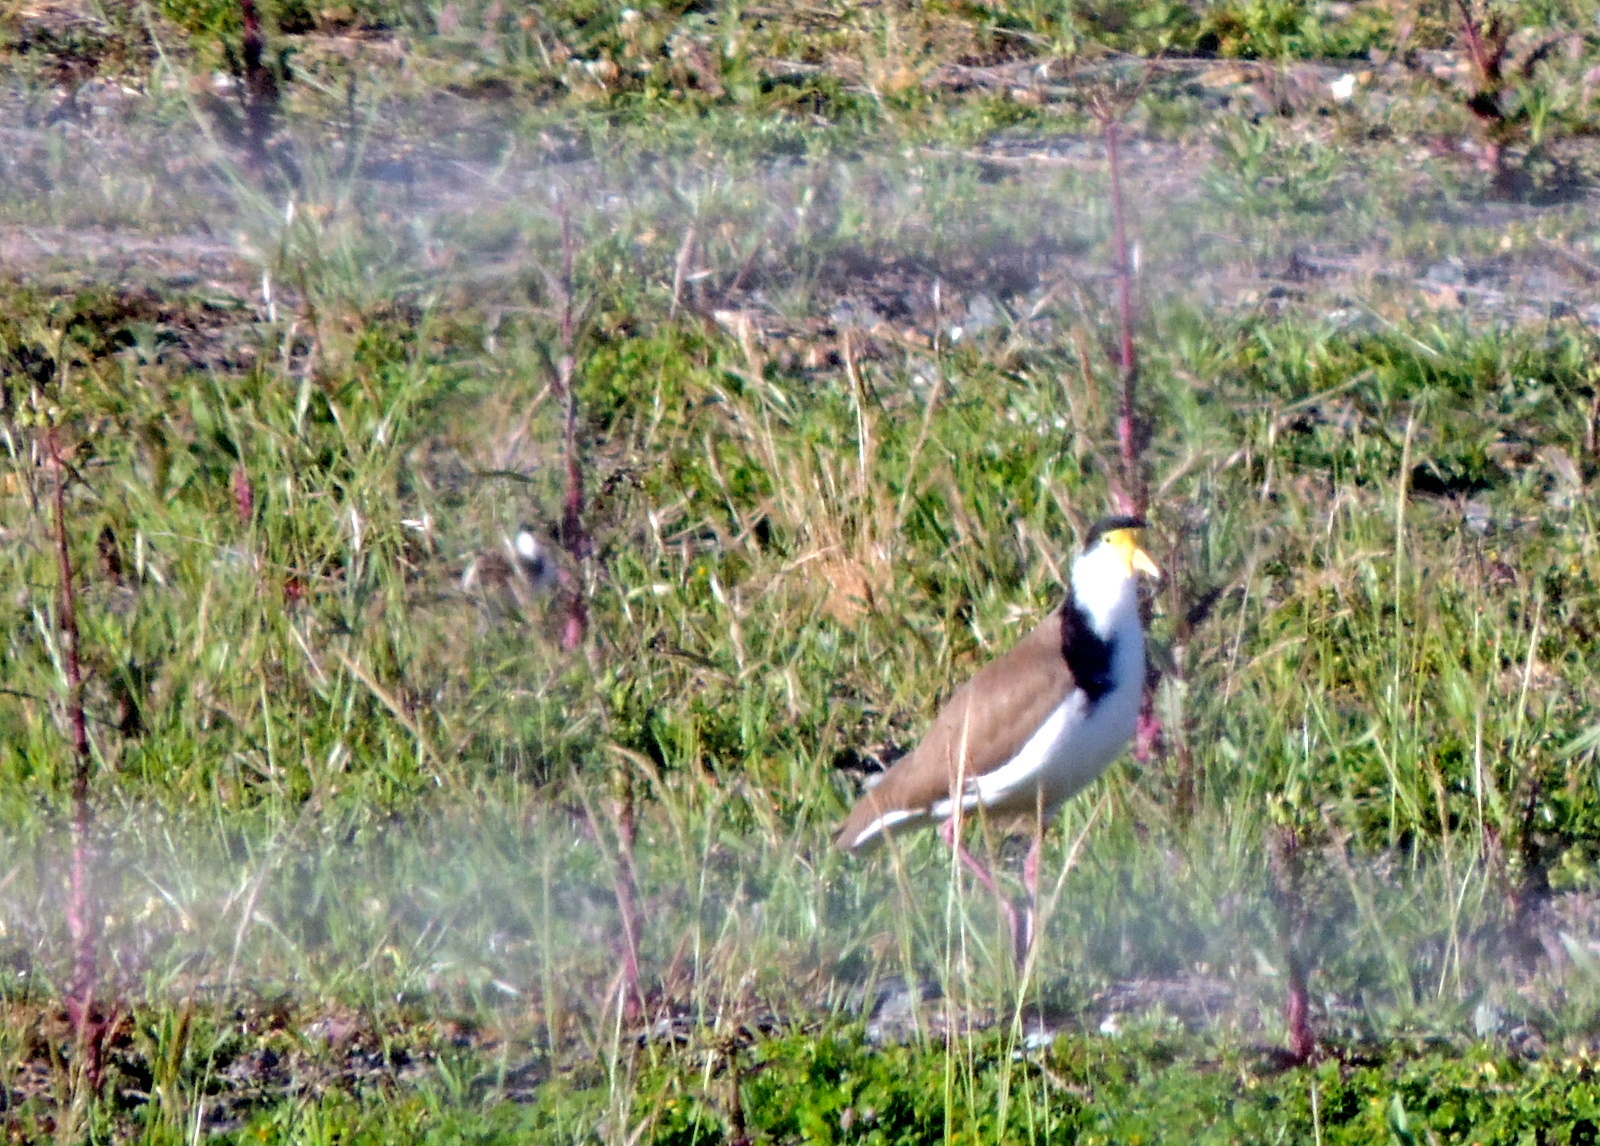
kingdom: Animalia
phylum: Chordata
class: Aves
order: Charadriiformes
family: Charadriidae
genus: Vanellus
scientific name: Vanellus miles
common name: Masked lapwing
